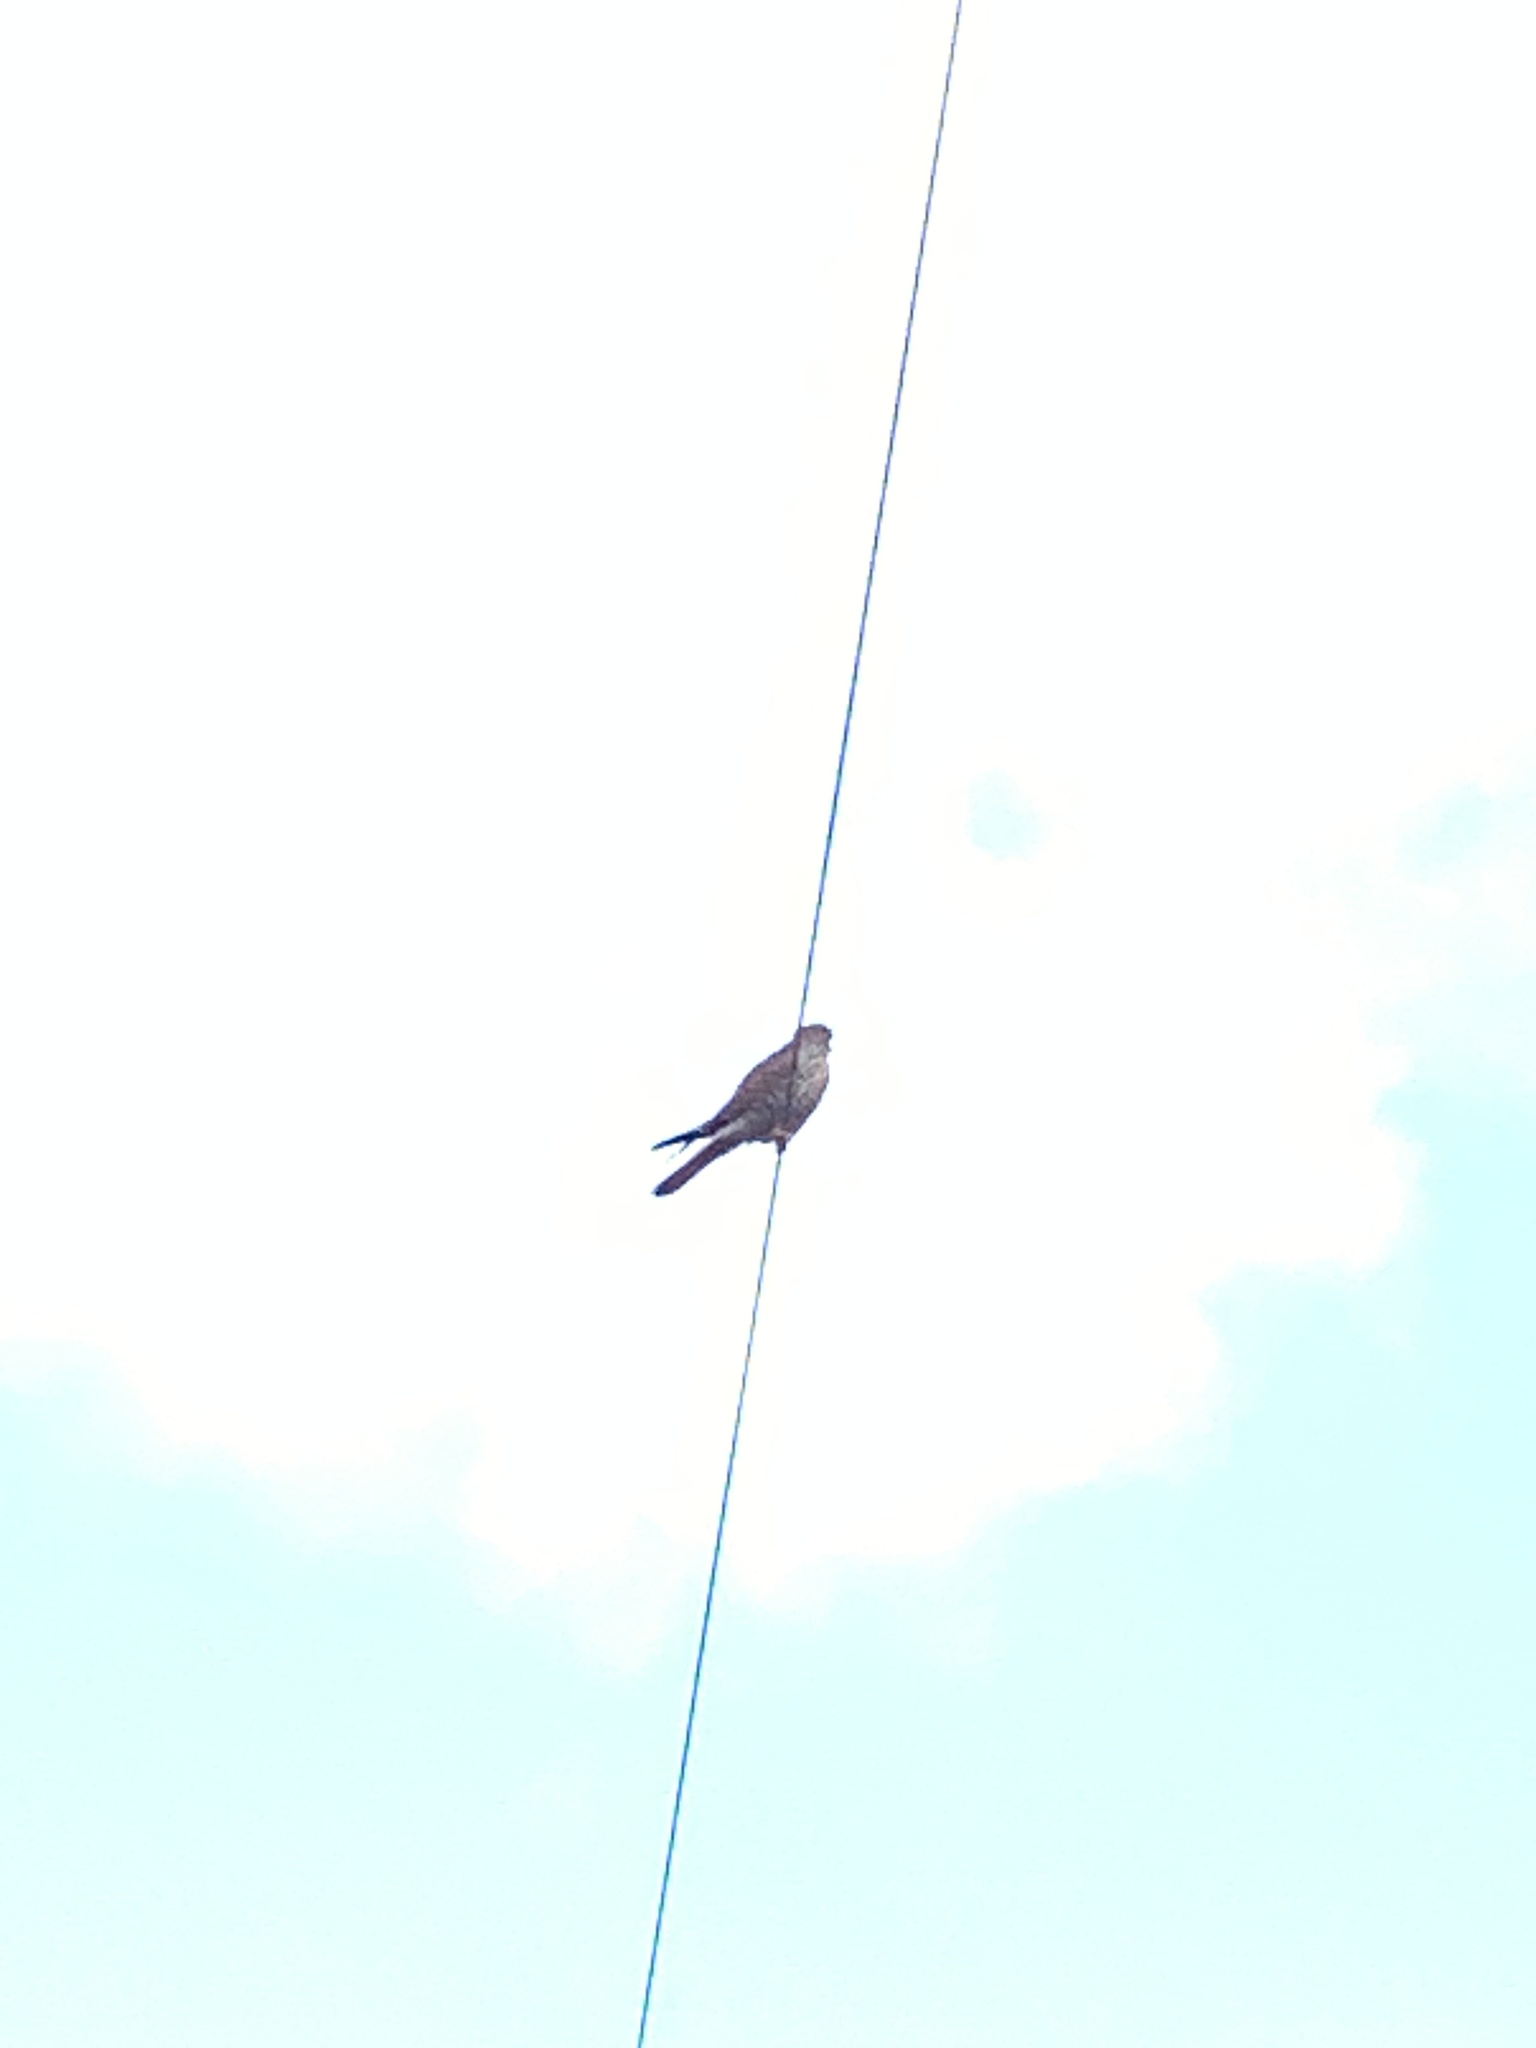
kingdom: Animalia
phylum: Chordata
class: Aves
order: Falconiformes
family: Falconidae
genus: Falco
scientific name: Falco tinnunculus
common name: Common kestrel
